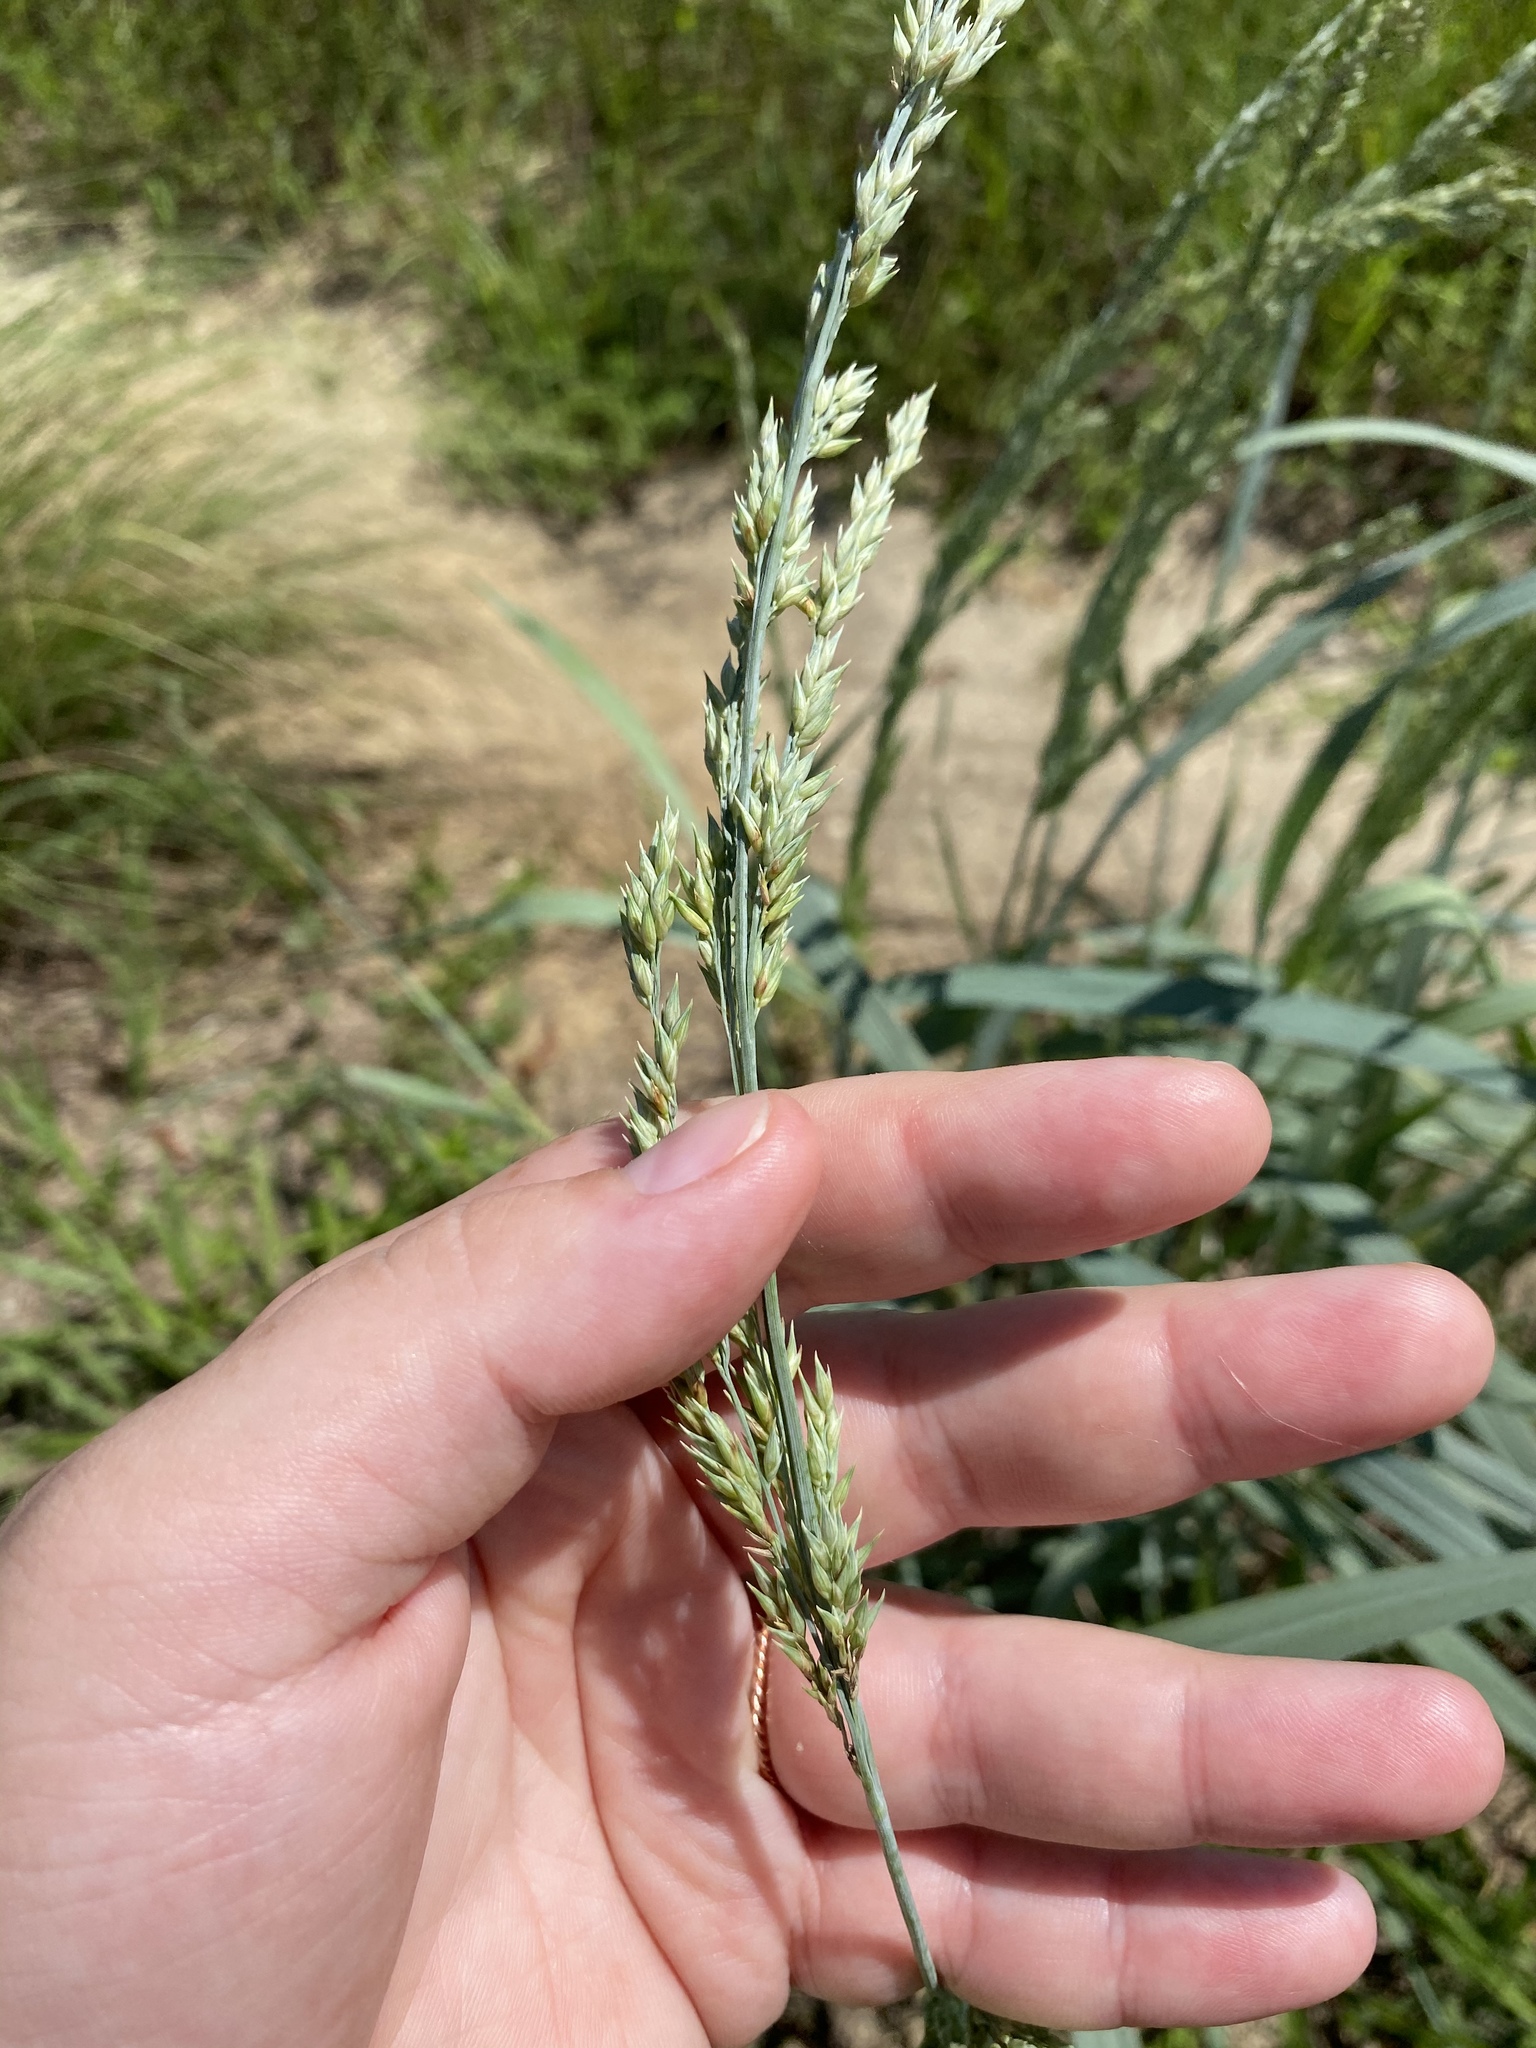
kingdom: Plantae
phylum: Tracheophyta
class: Liliopsida
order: Poales
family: Poaceae
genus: Panicum
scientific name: Panicum amarum
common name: Bitter panicum
